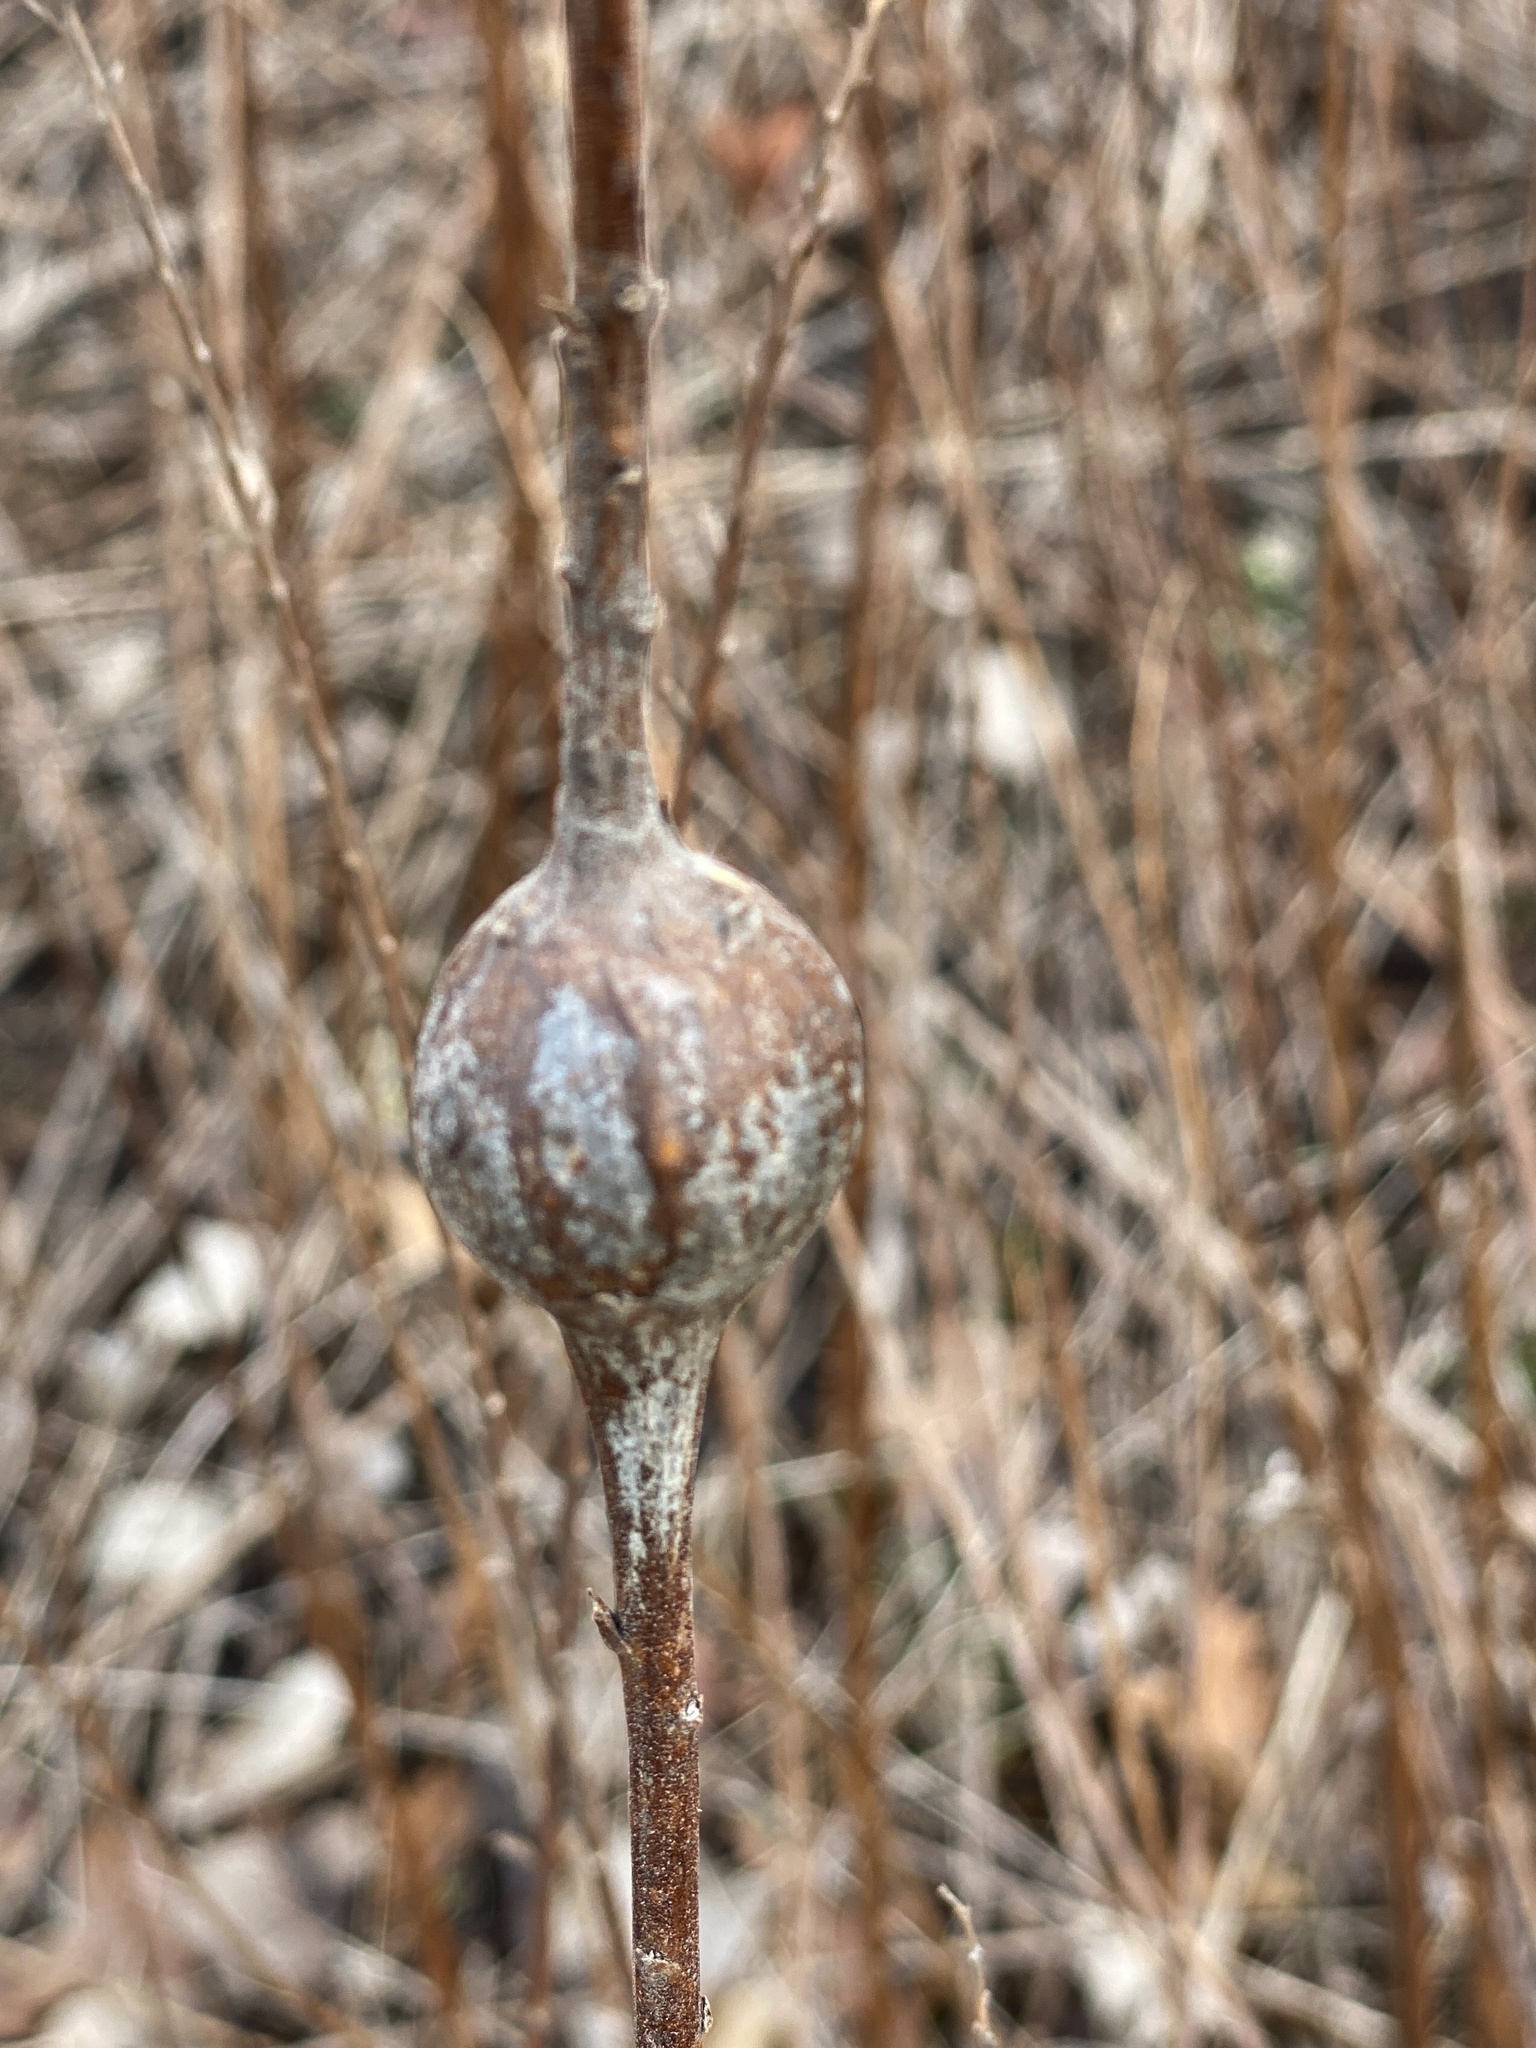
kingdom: Animalia
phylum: Arthropoda
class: Insecta
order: Diptera
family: Tephritidae
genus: Eurosta
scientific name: Eurosta solidaginis
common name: Goldenrod gall fly
